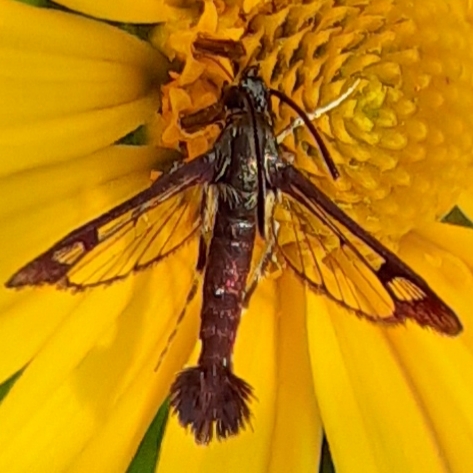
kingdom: Animalia
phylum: Arthropoda
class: Insecta
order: Lepidoptera
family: Sesiidae
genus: Carmenta
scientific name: Carmenta ithacae
